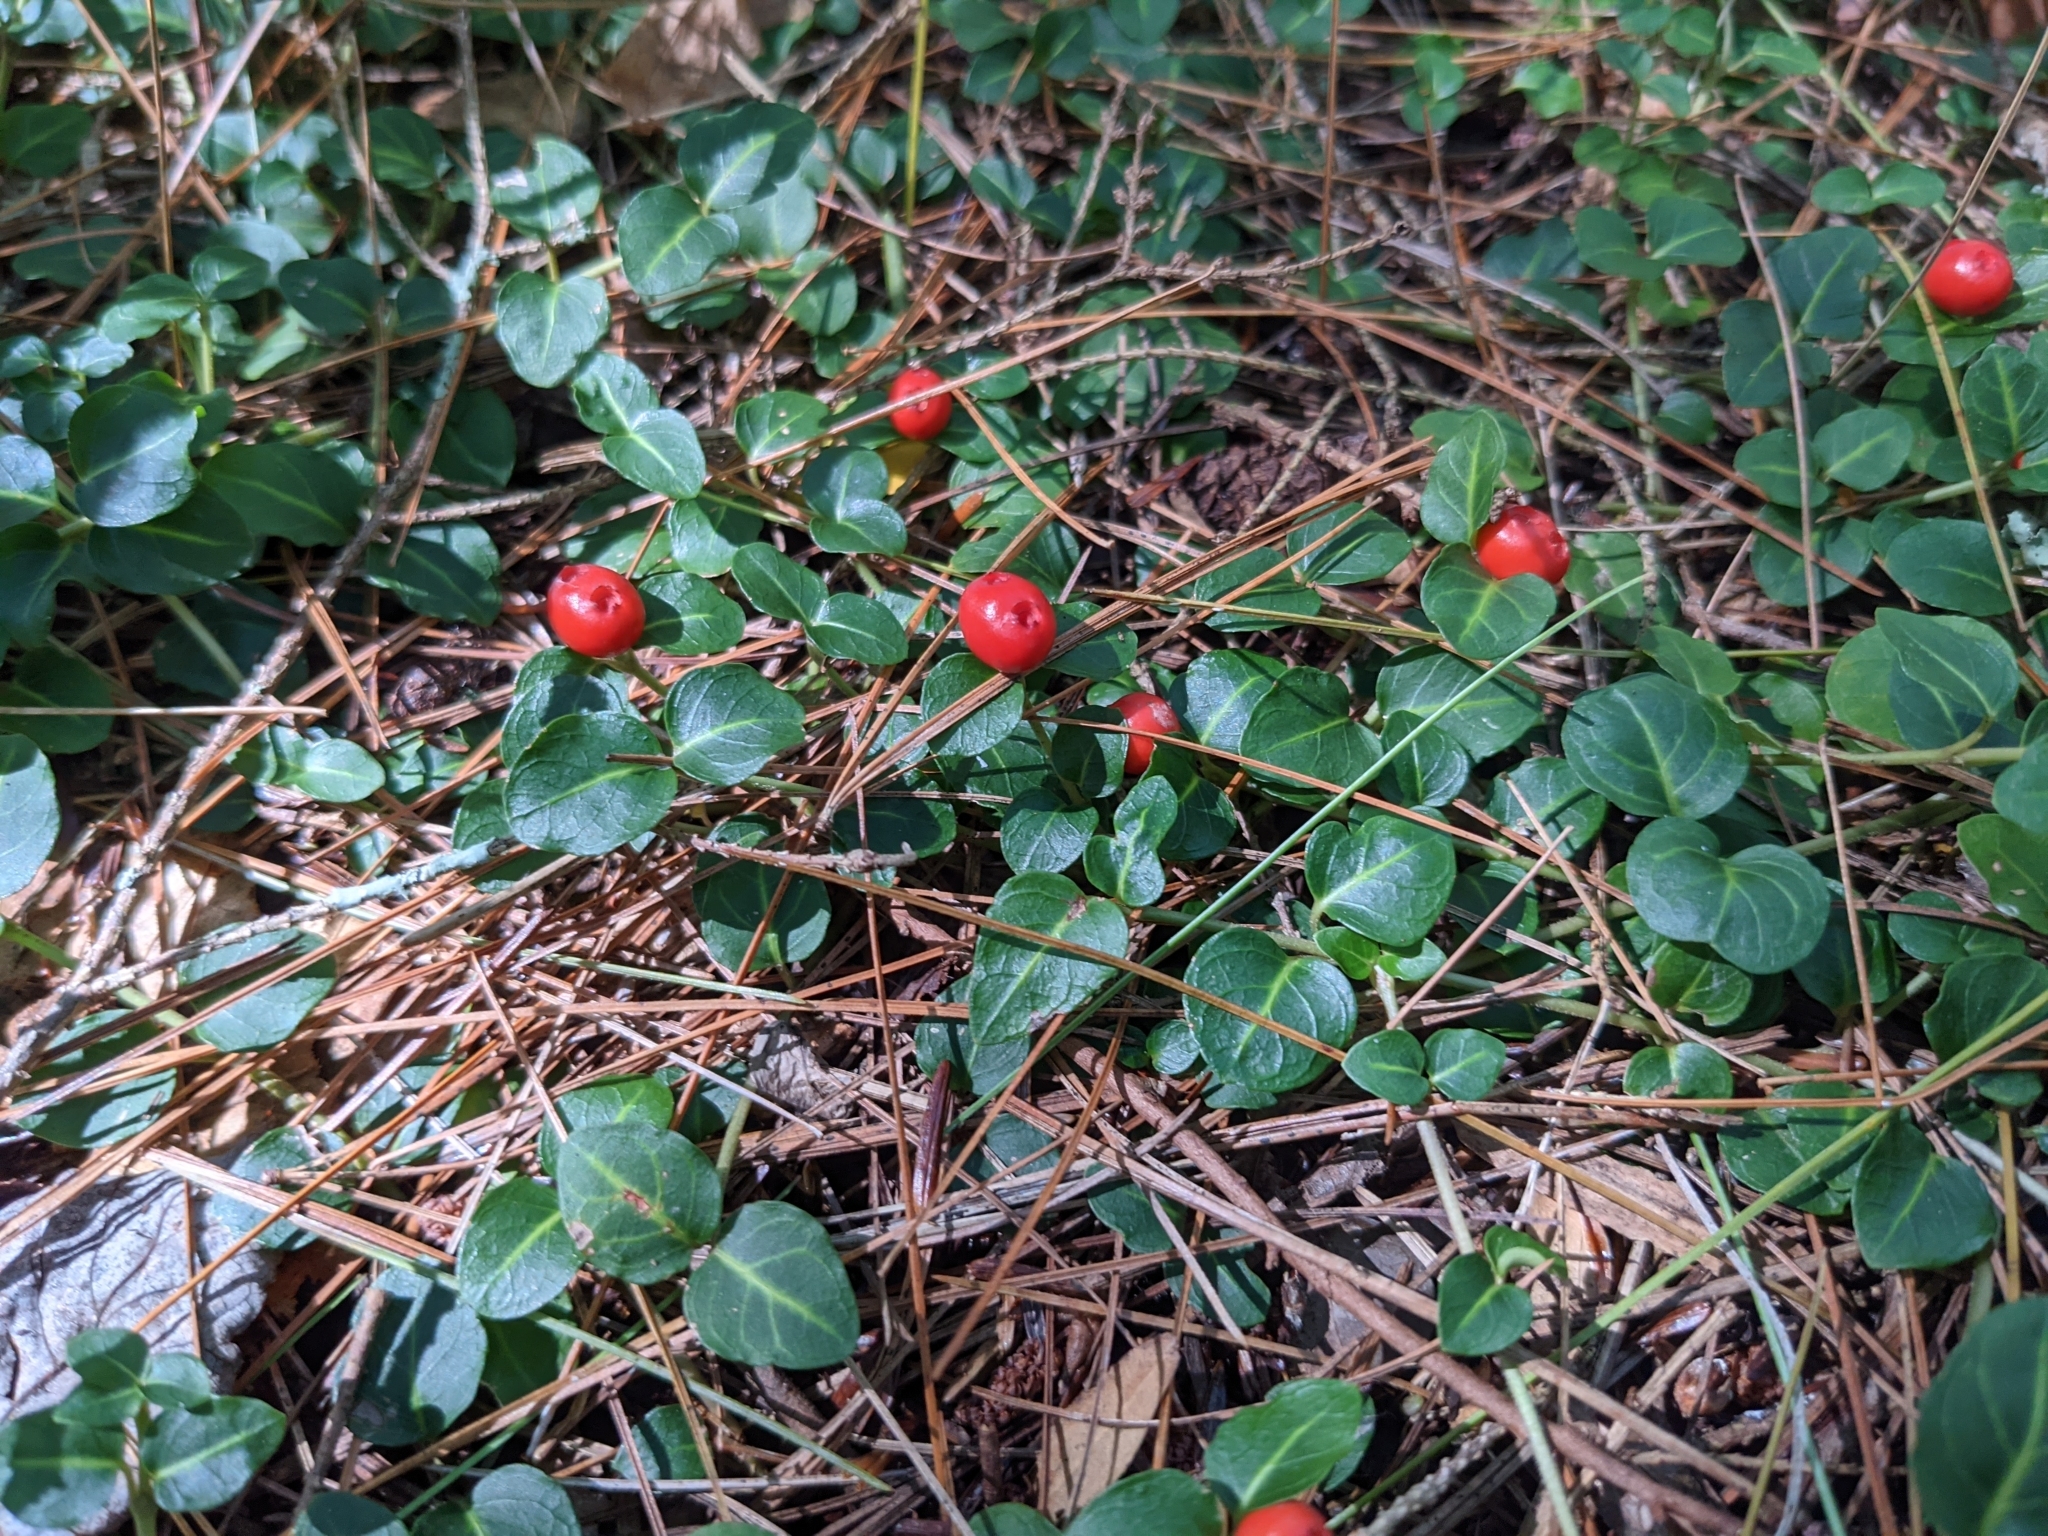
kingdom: Plantae
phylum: Tracheophyta
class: Magnoliopsida
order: Gentianales
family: Rubiaceae
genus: Mitchella
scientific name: Mitchella repens
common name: Partridge-berry
